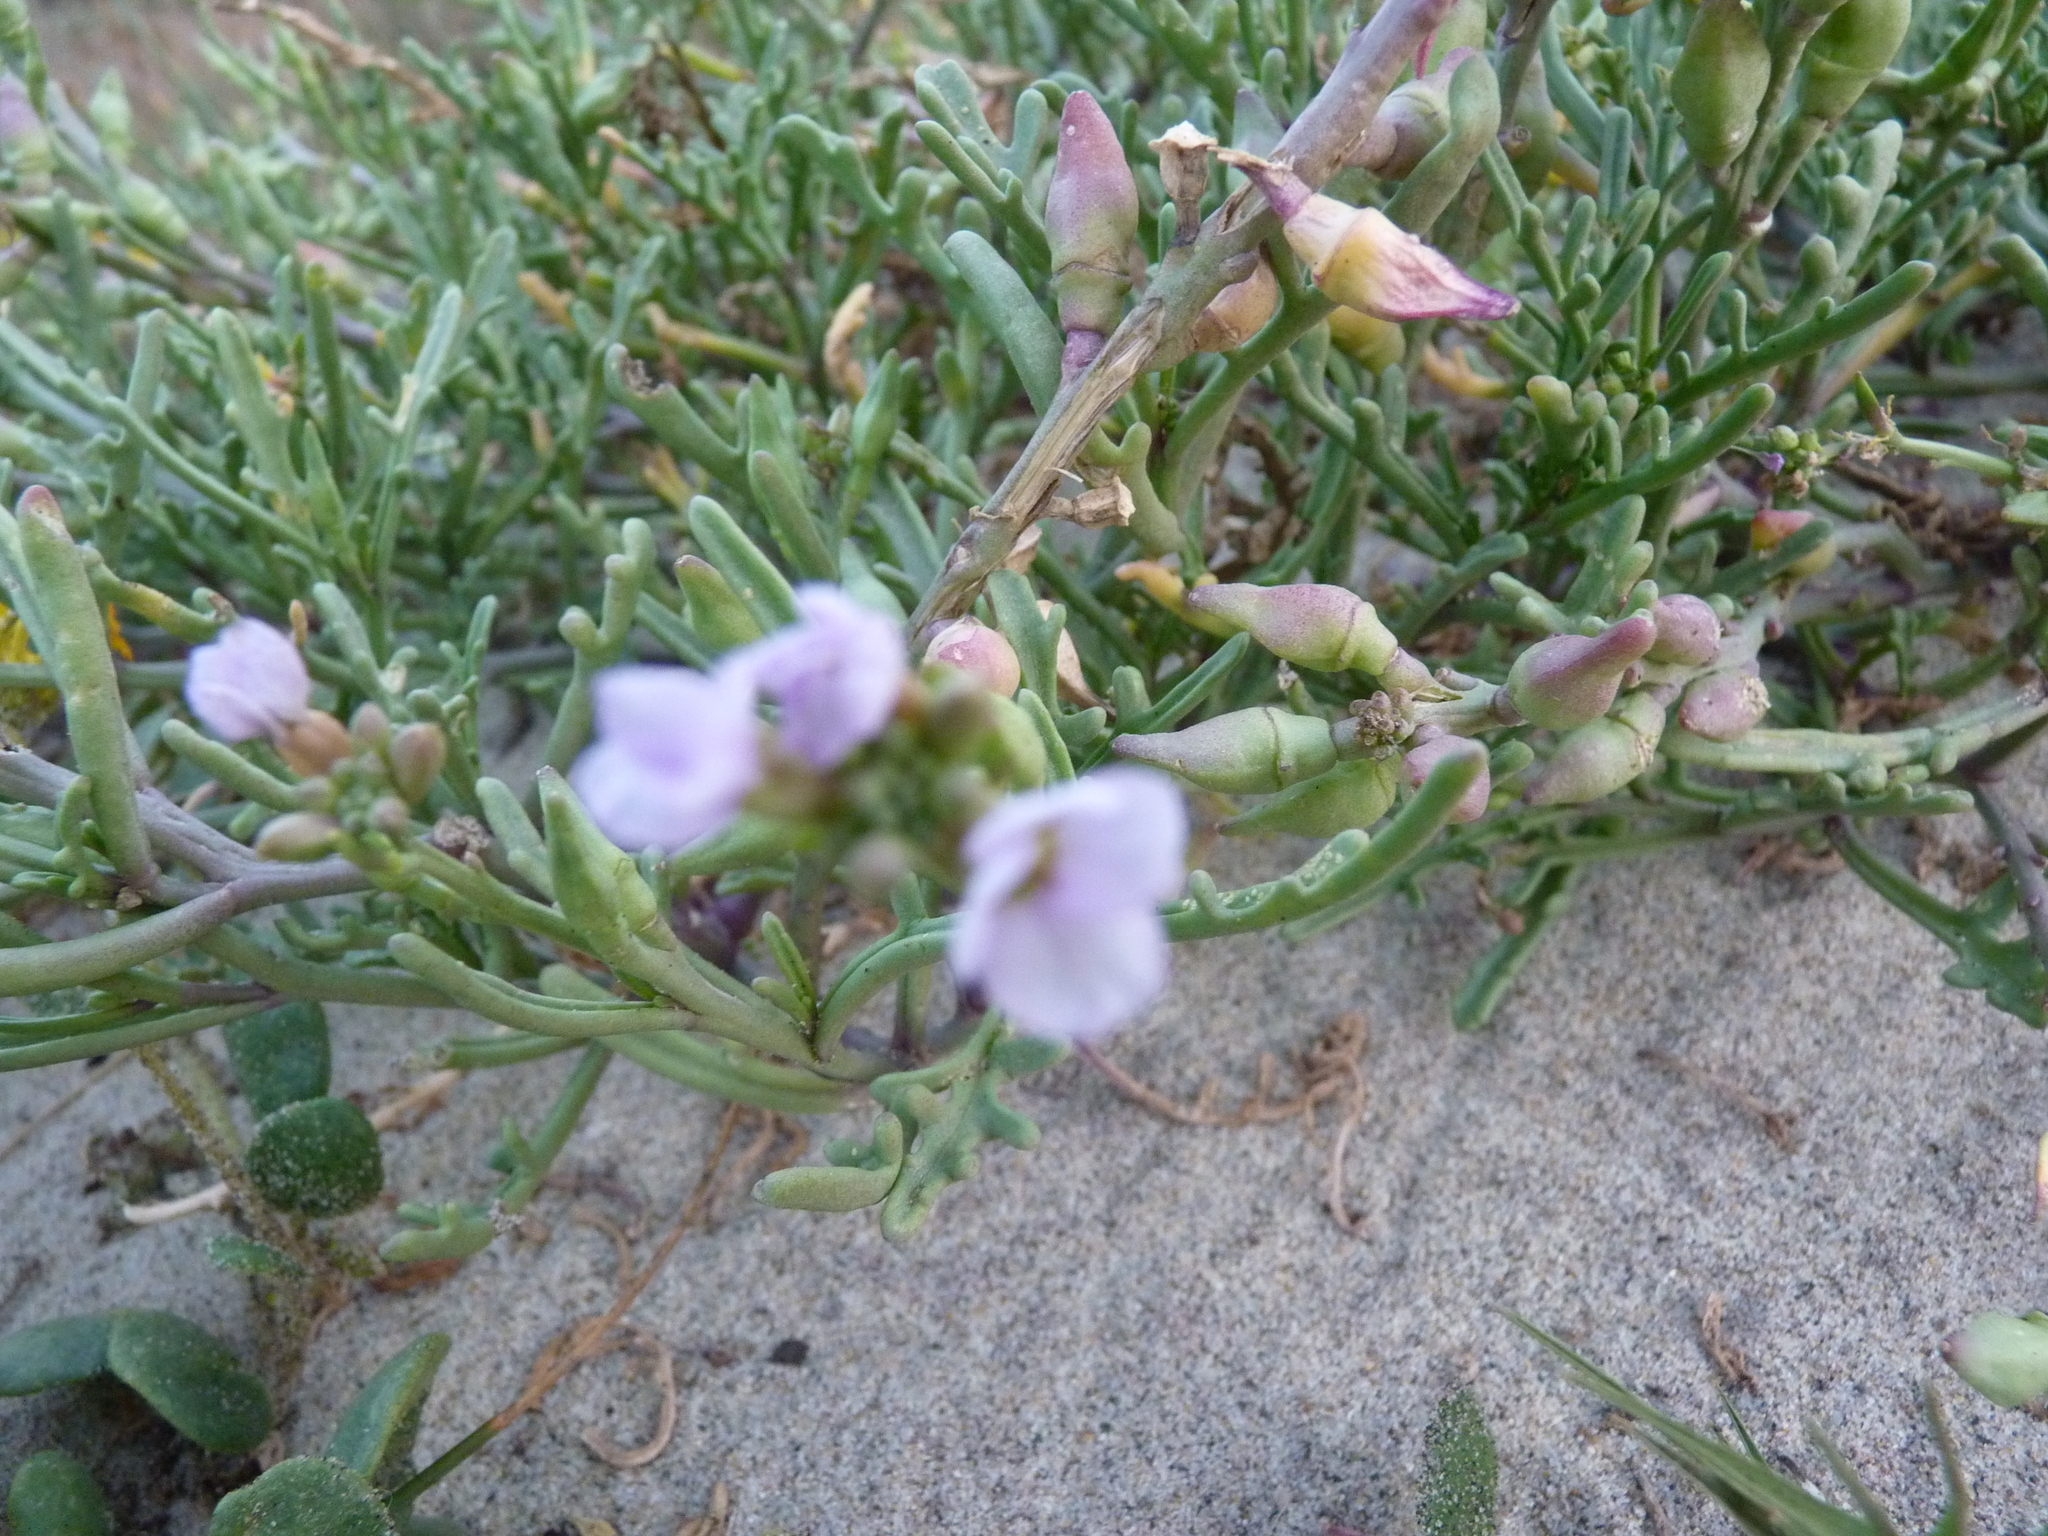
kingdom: Plantae
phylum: Tracheophyta
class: Magnoliopsida
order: Brassicales
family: Brassicaceae
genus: Cakile
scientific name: Cakile maritima
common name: Sea rocket
